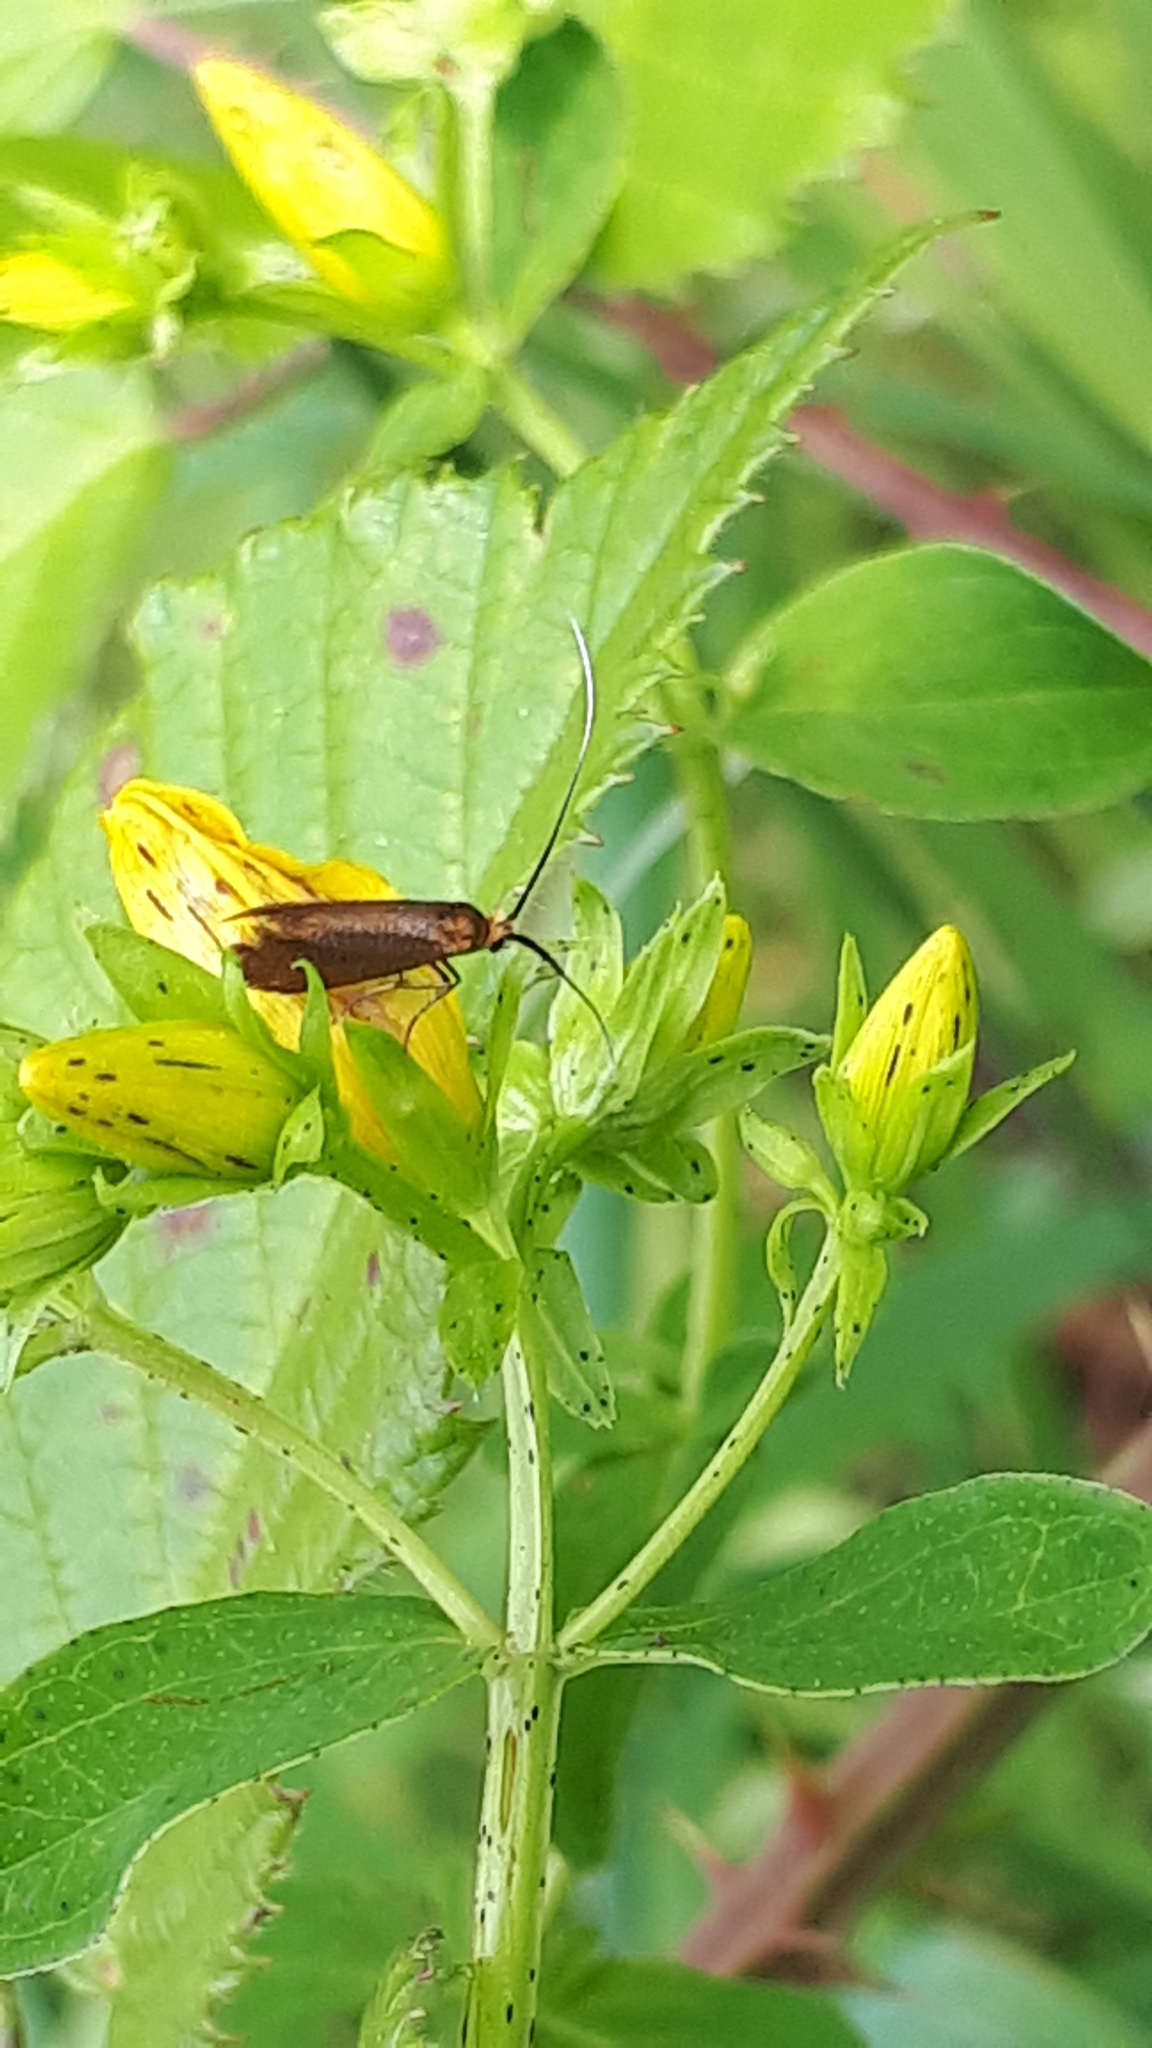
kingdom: Animalia
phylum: Arthropoda
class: Insecta
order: Lepidoptera
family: Adelidae
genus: Adela
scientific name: Adela violella
